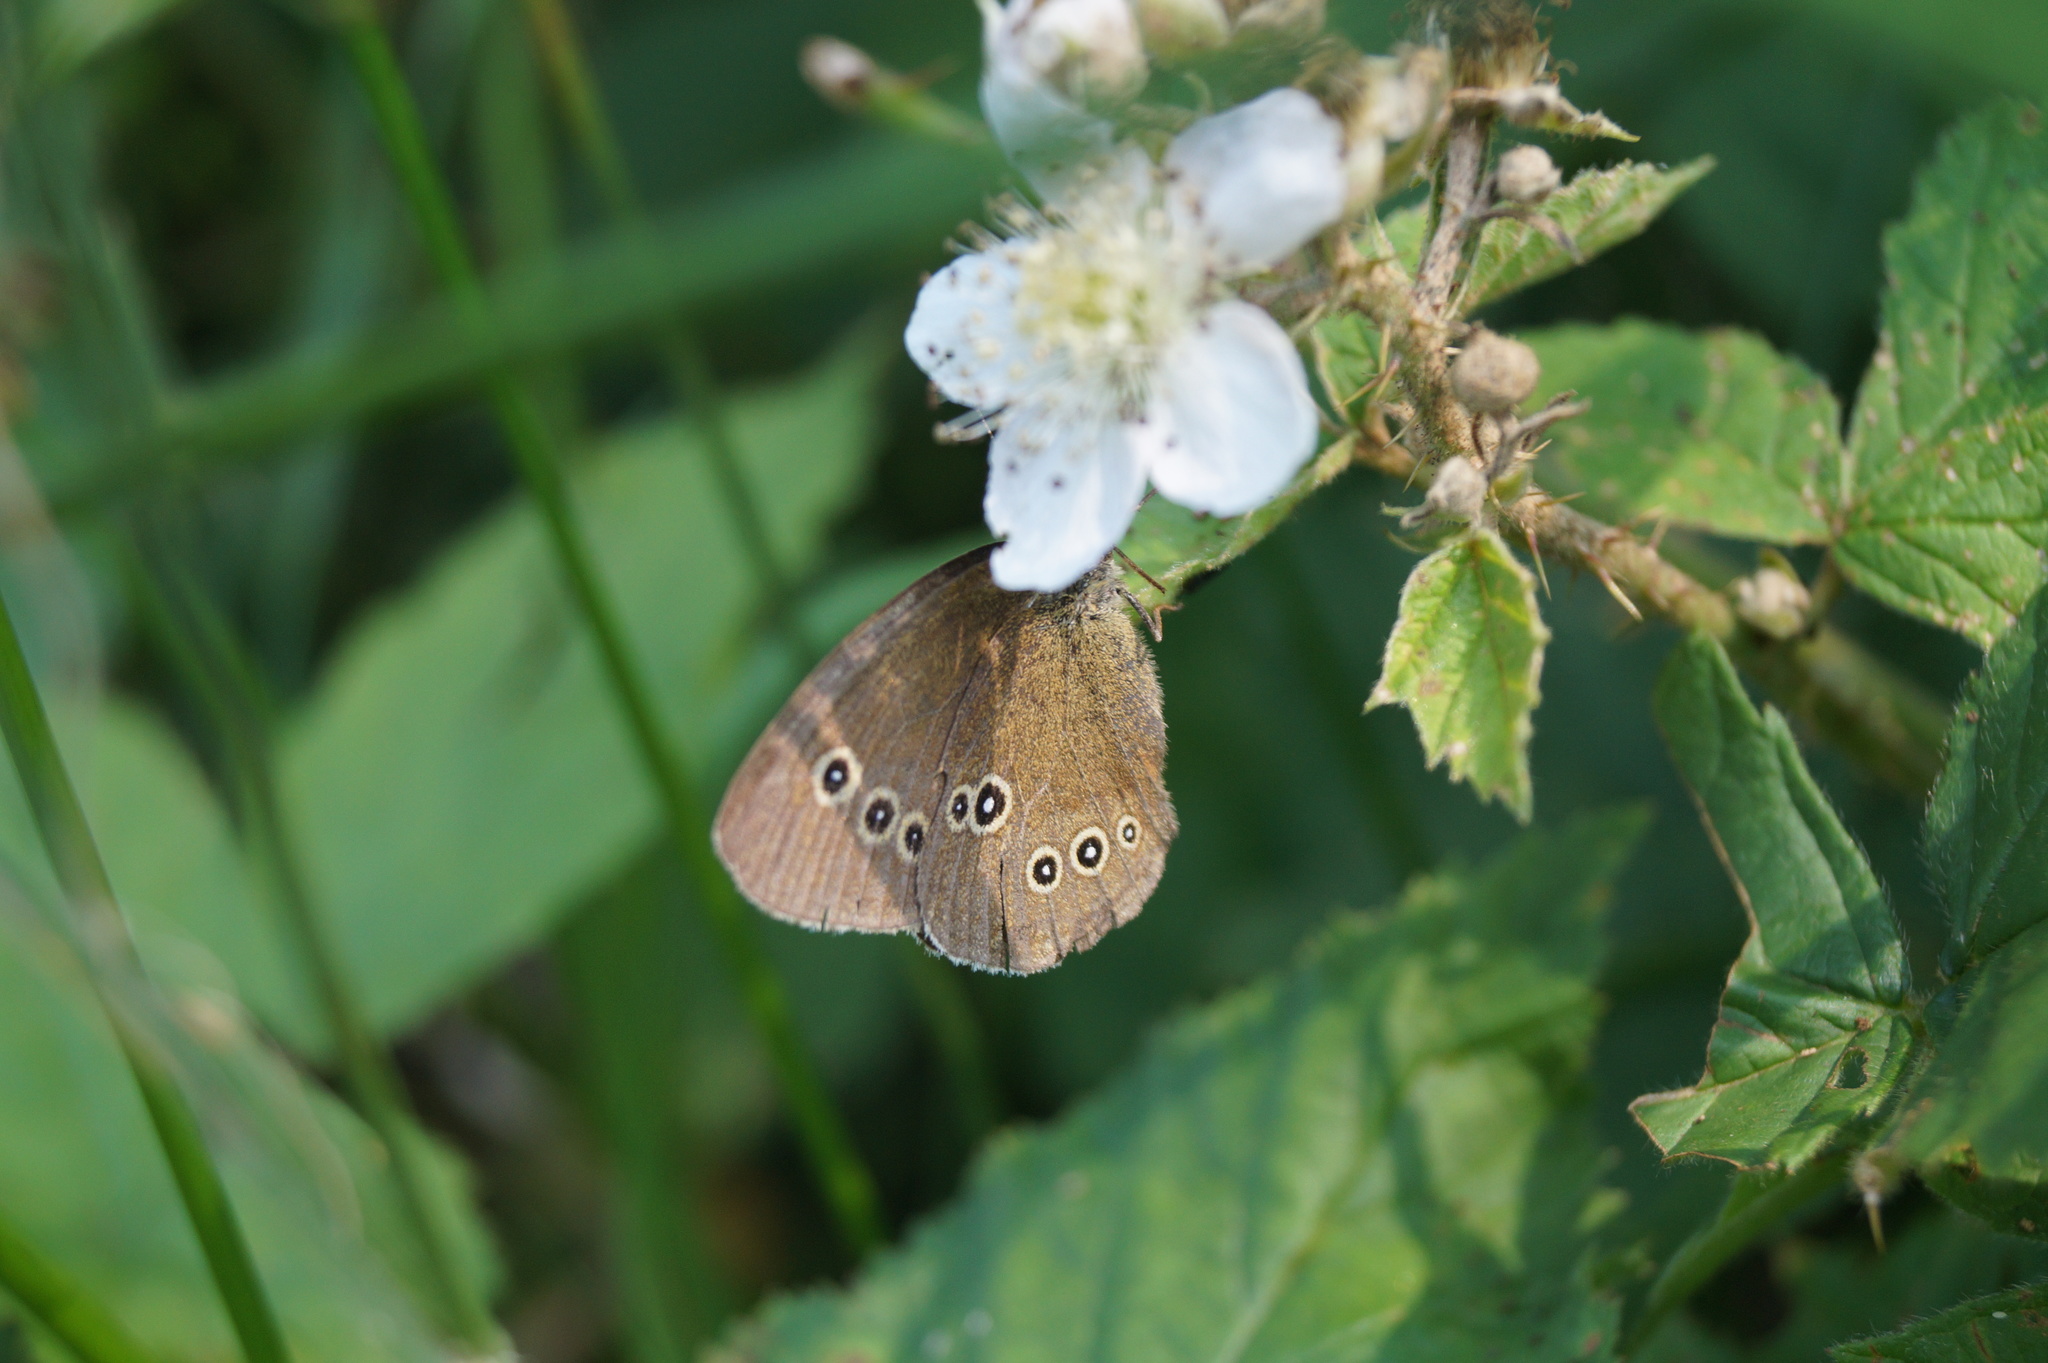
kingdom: Animalia
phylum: Arthropoda
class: Insecta
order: Lepidoptera
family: Nymphalidae
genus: Aphantopus
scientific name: Aphantopus hyperantus
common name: Ringlet
